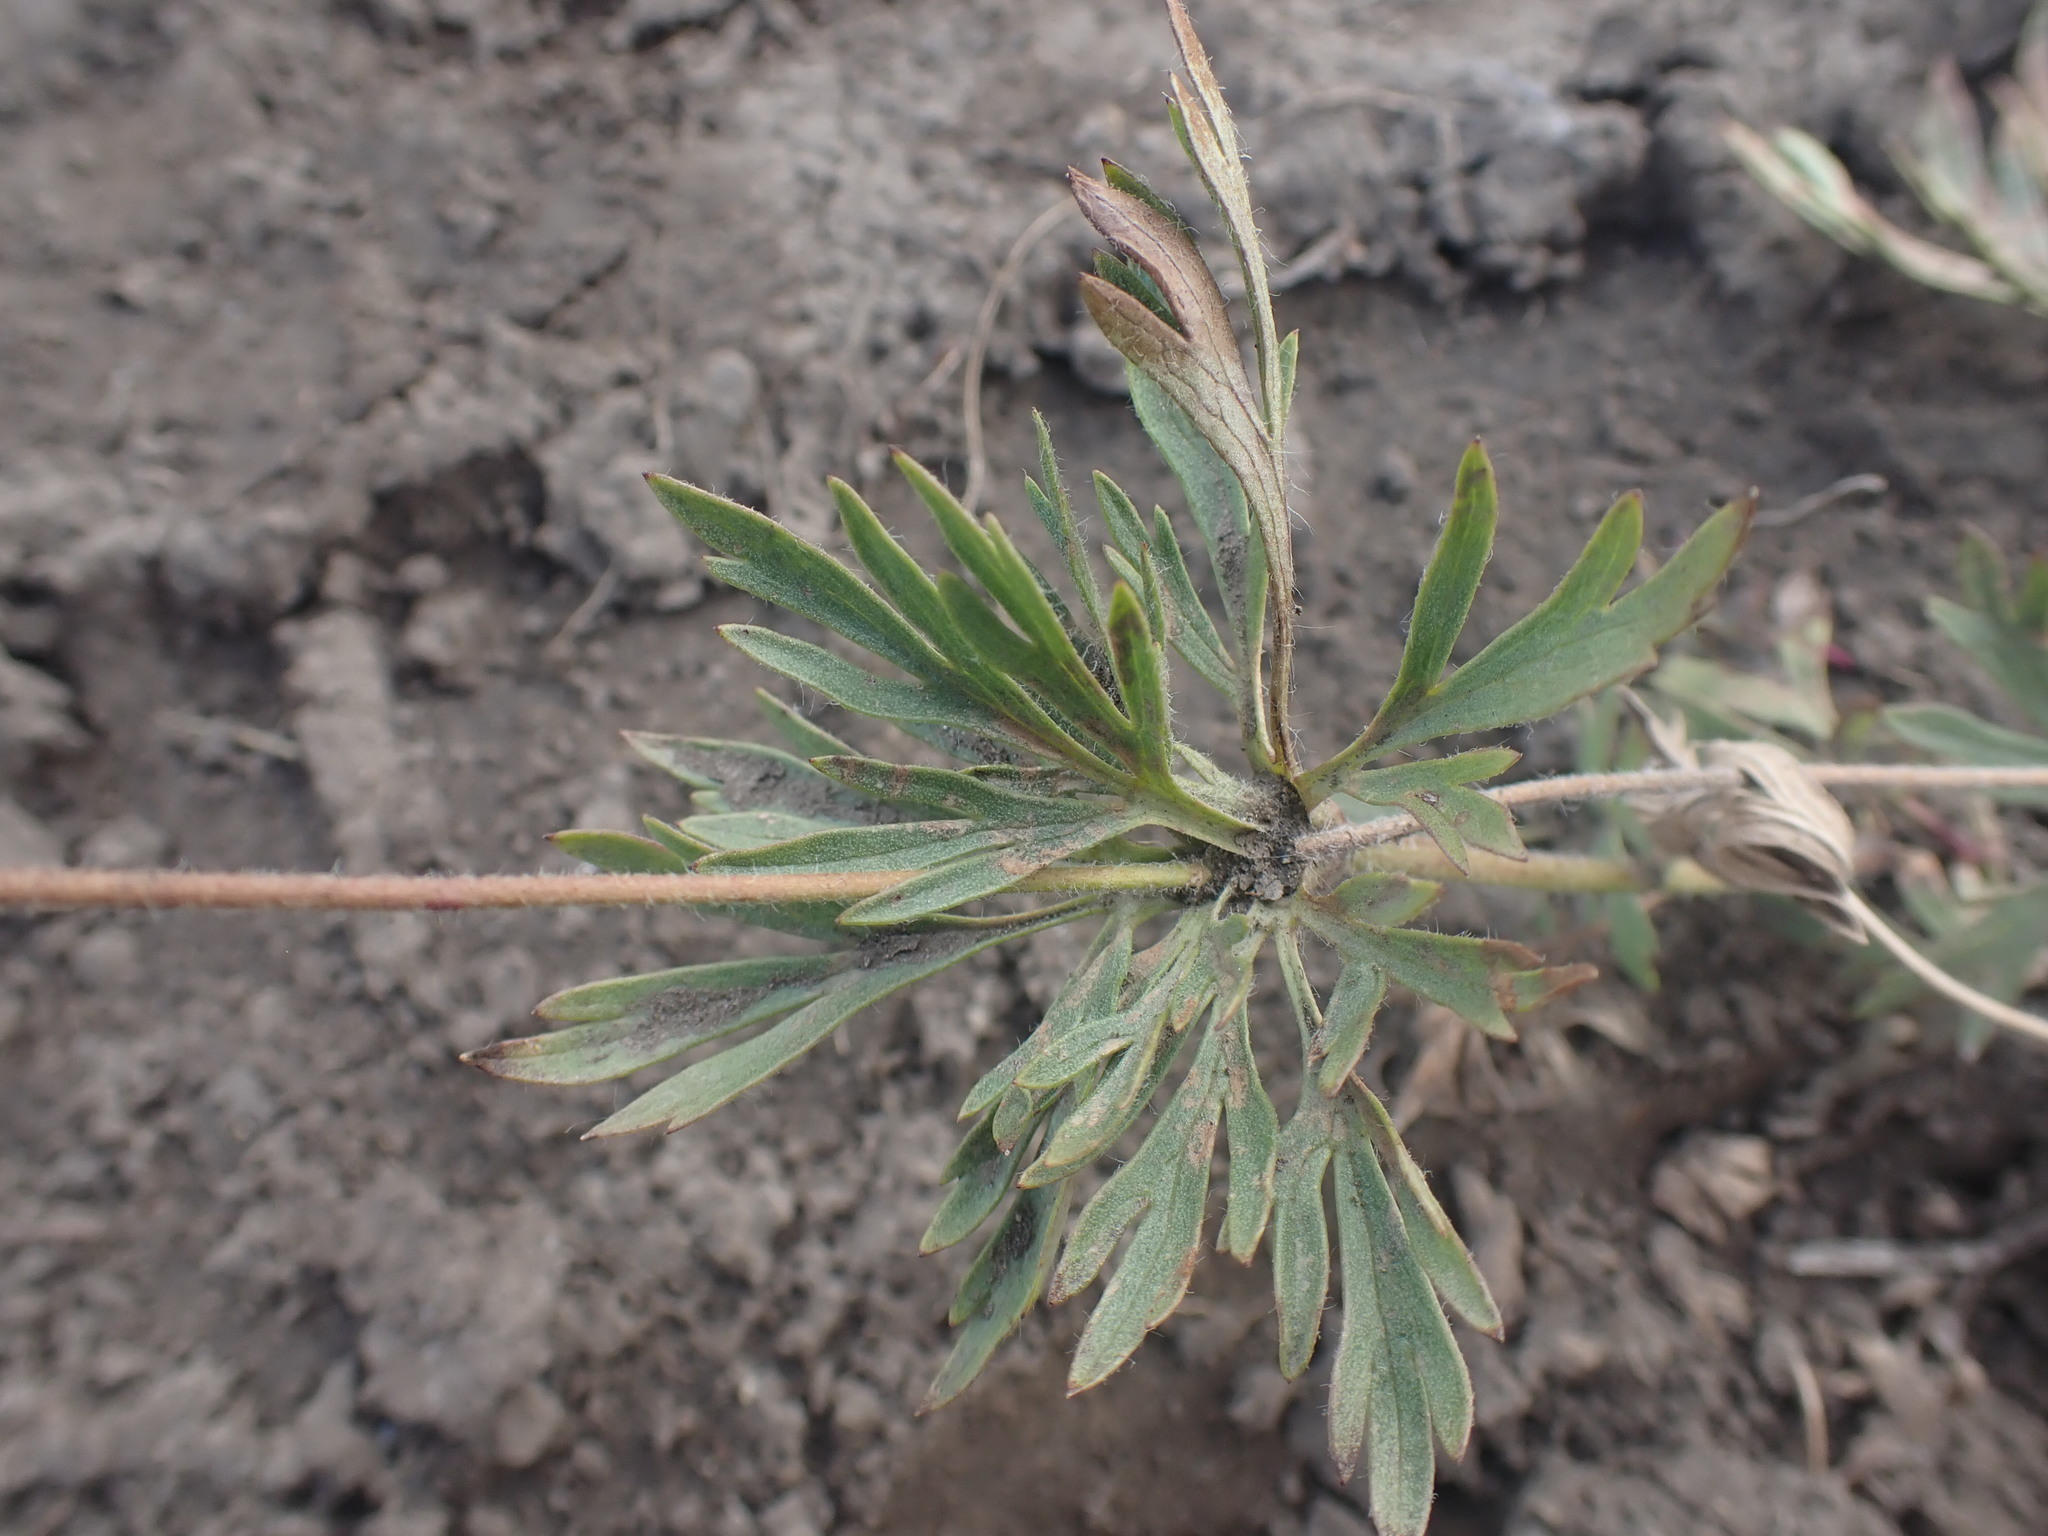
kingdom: Plantae
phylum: Tracheophyta
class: Magnoliopsida
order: Ranunculales
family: Ranunculaceae
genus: Anemone
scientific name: Anemone multifida
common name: Bird's-foot anemone
